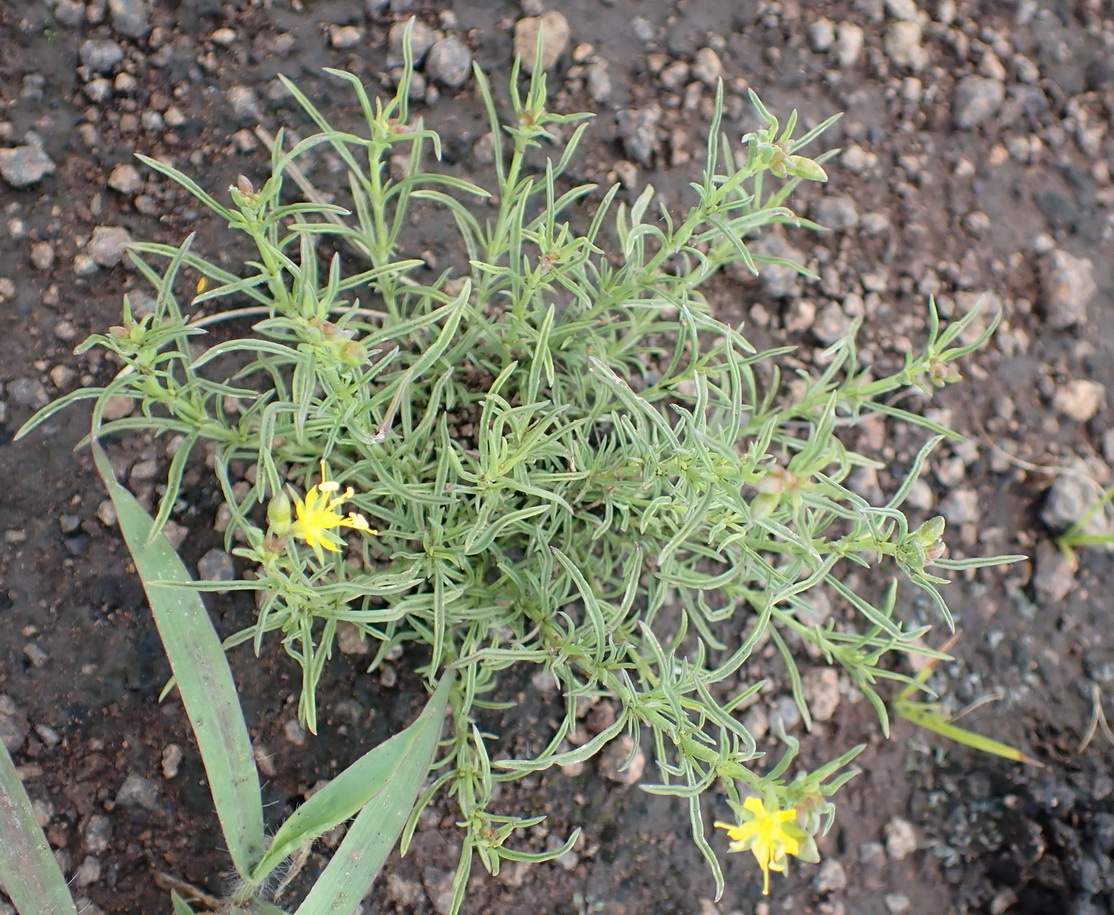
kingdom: Plantae
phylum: Tracheophyta
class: Magnoliopsida
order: Vahliales
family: Vahliaceae
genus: Vahlia
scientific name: Vahlia capensis
